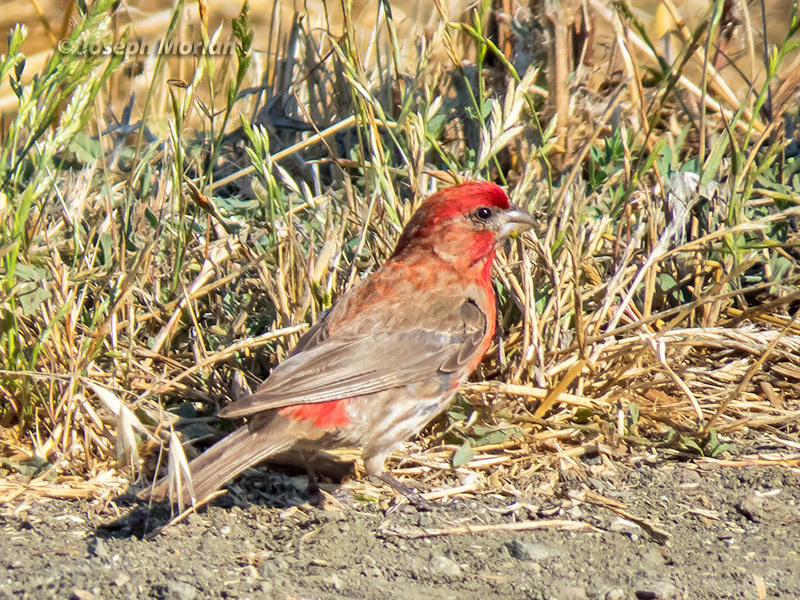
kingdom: Animalia
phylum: Chordata
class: Aves
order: Passeriformes
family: Fringillidae
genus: Haemorhous
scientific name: Haemorhous mexicanus
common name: House finch
